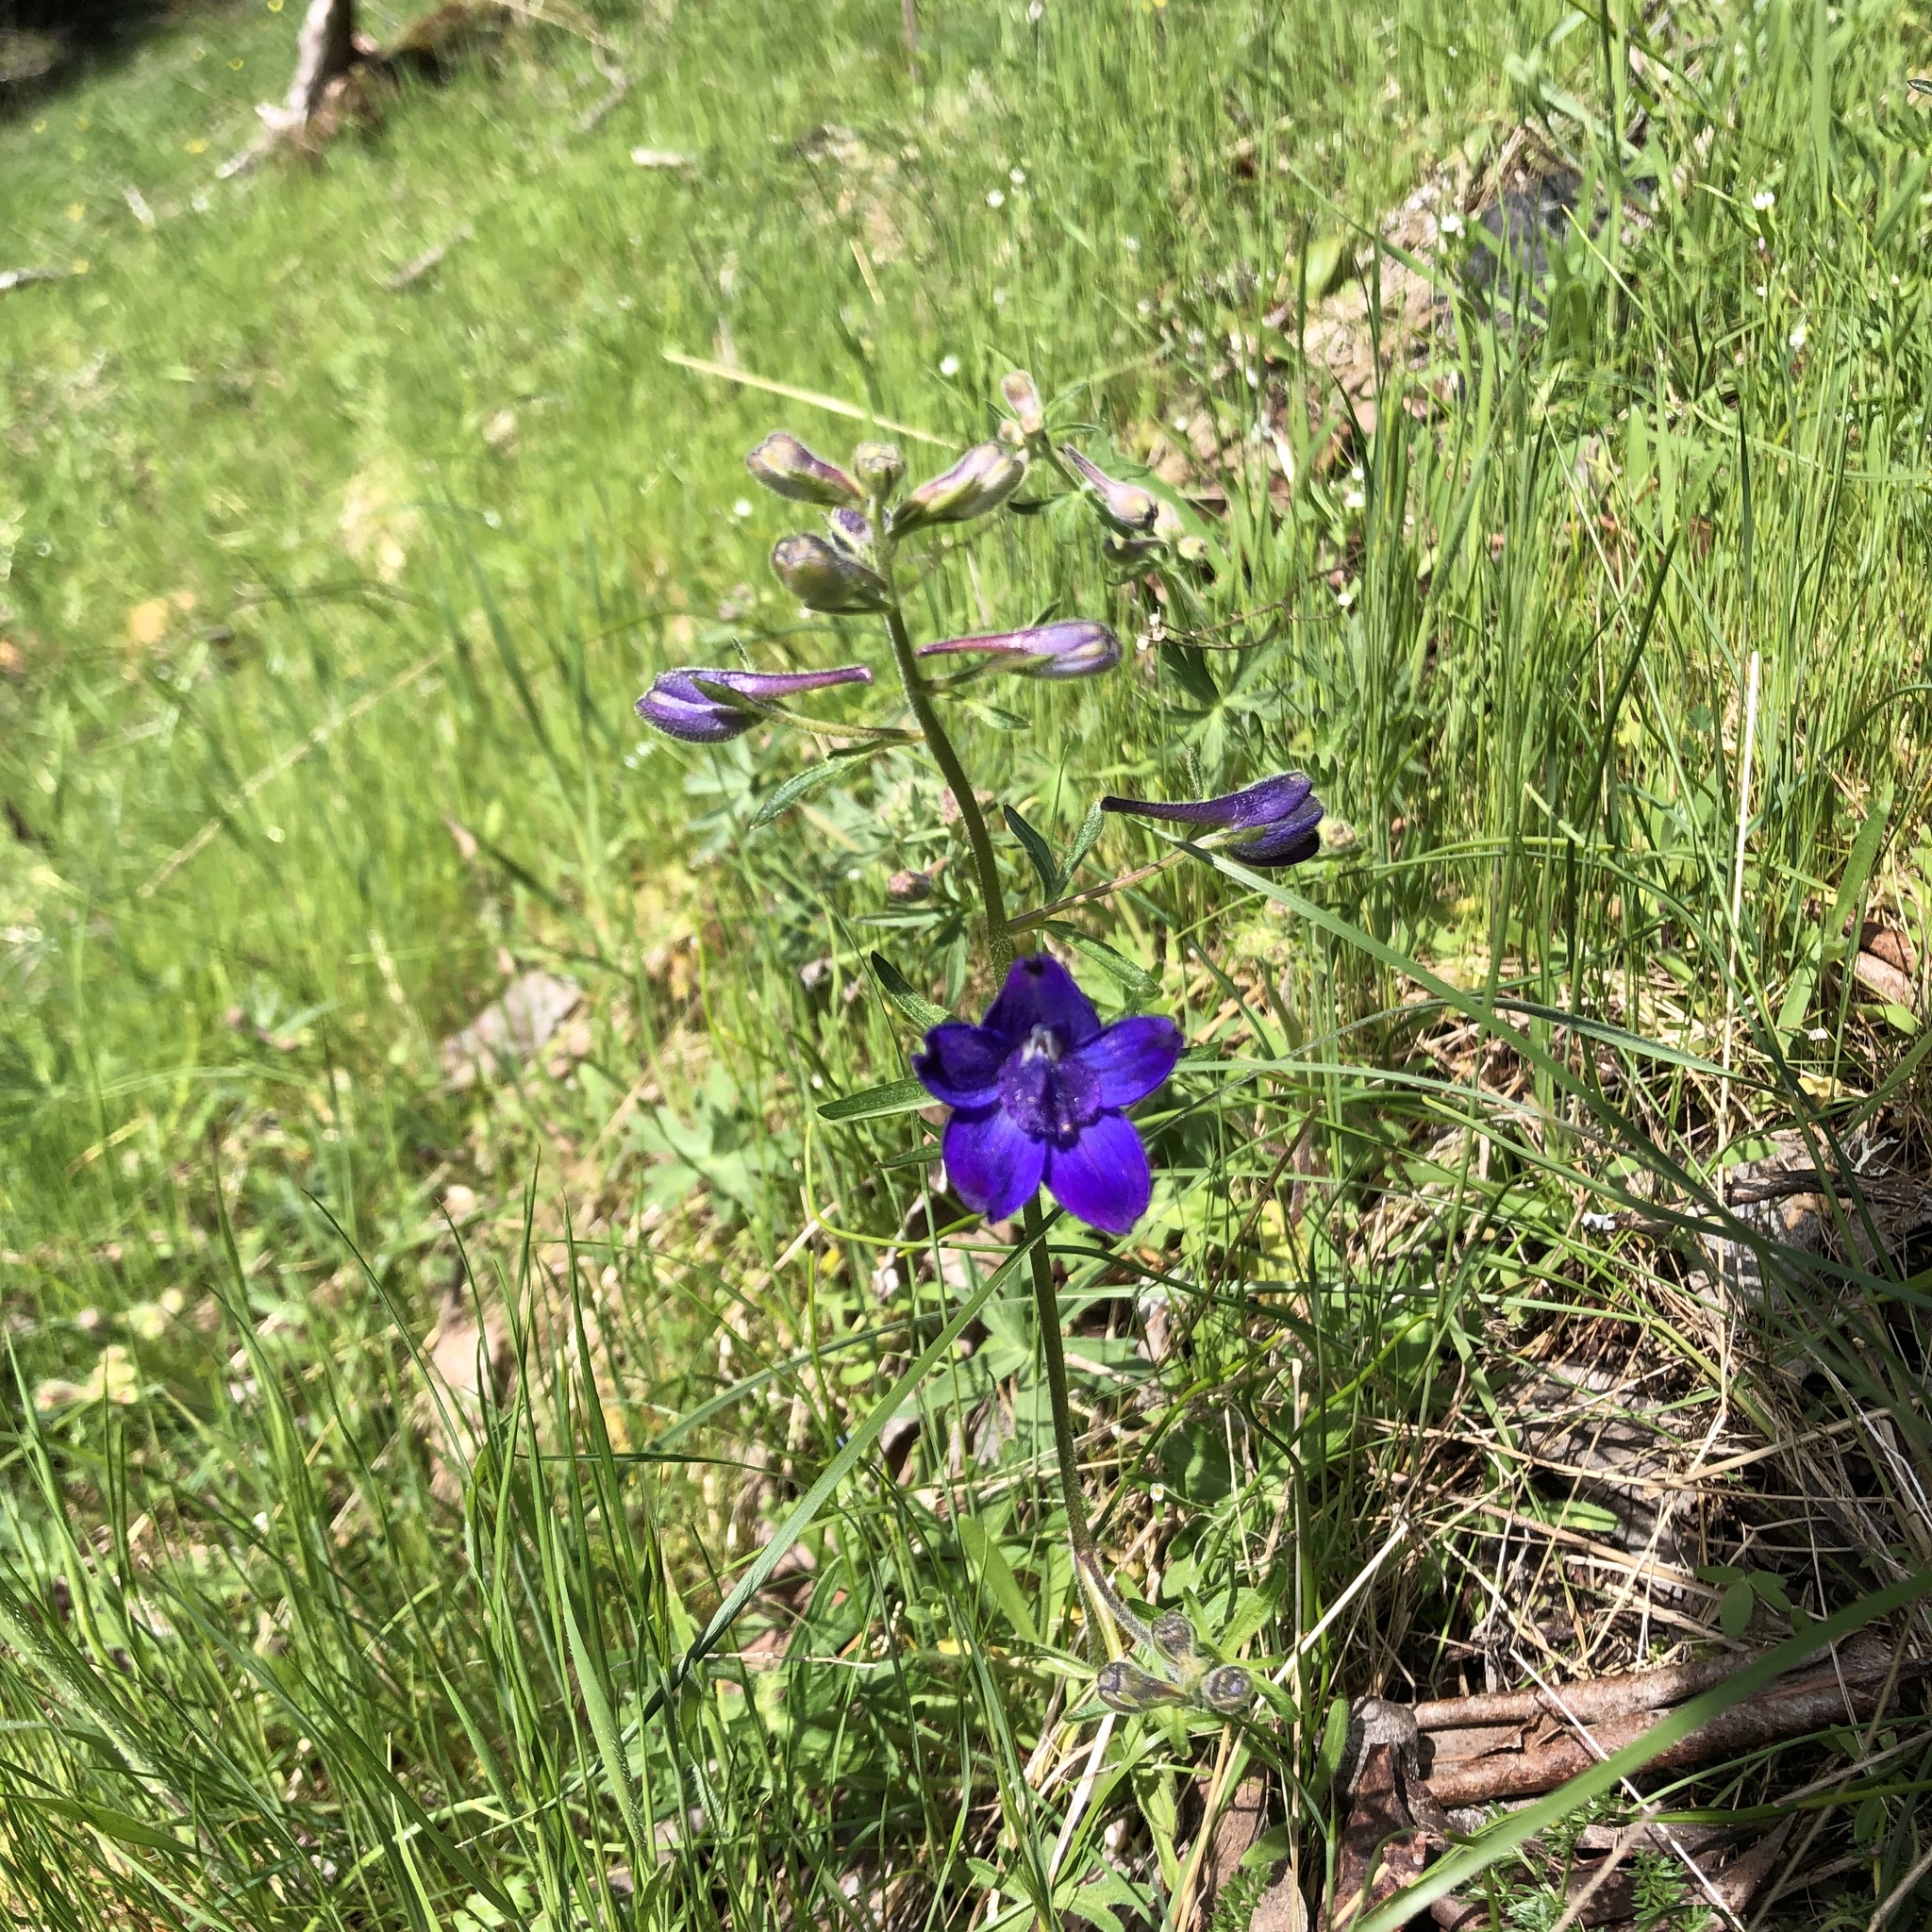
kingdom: Plantae
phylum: Tracheophyta
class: Magnoliopsida
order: Ranunculales
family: Ranunculaceae
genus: Delphinium
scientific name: Delphinium menziesii
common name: Menzies's larkspur
